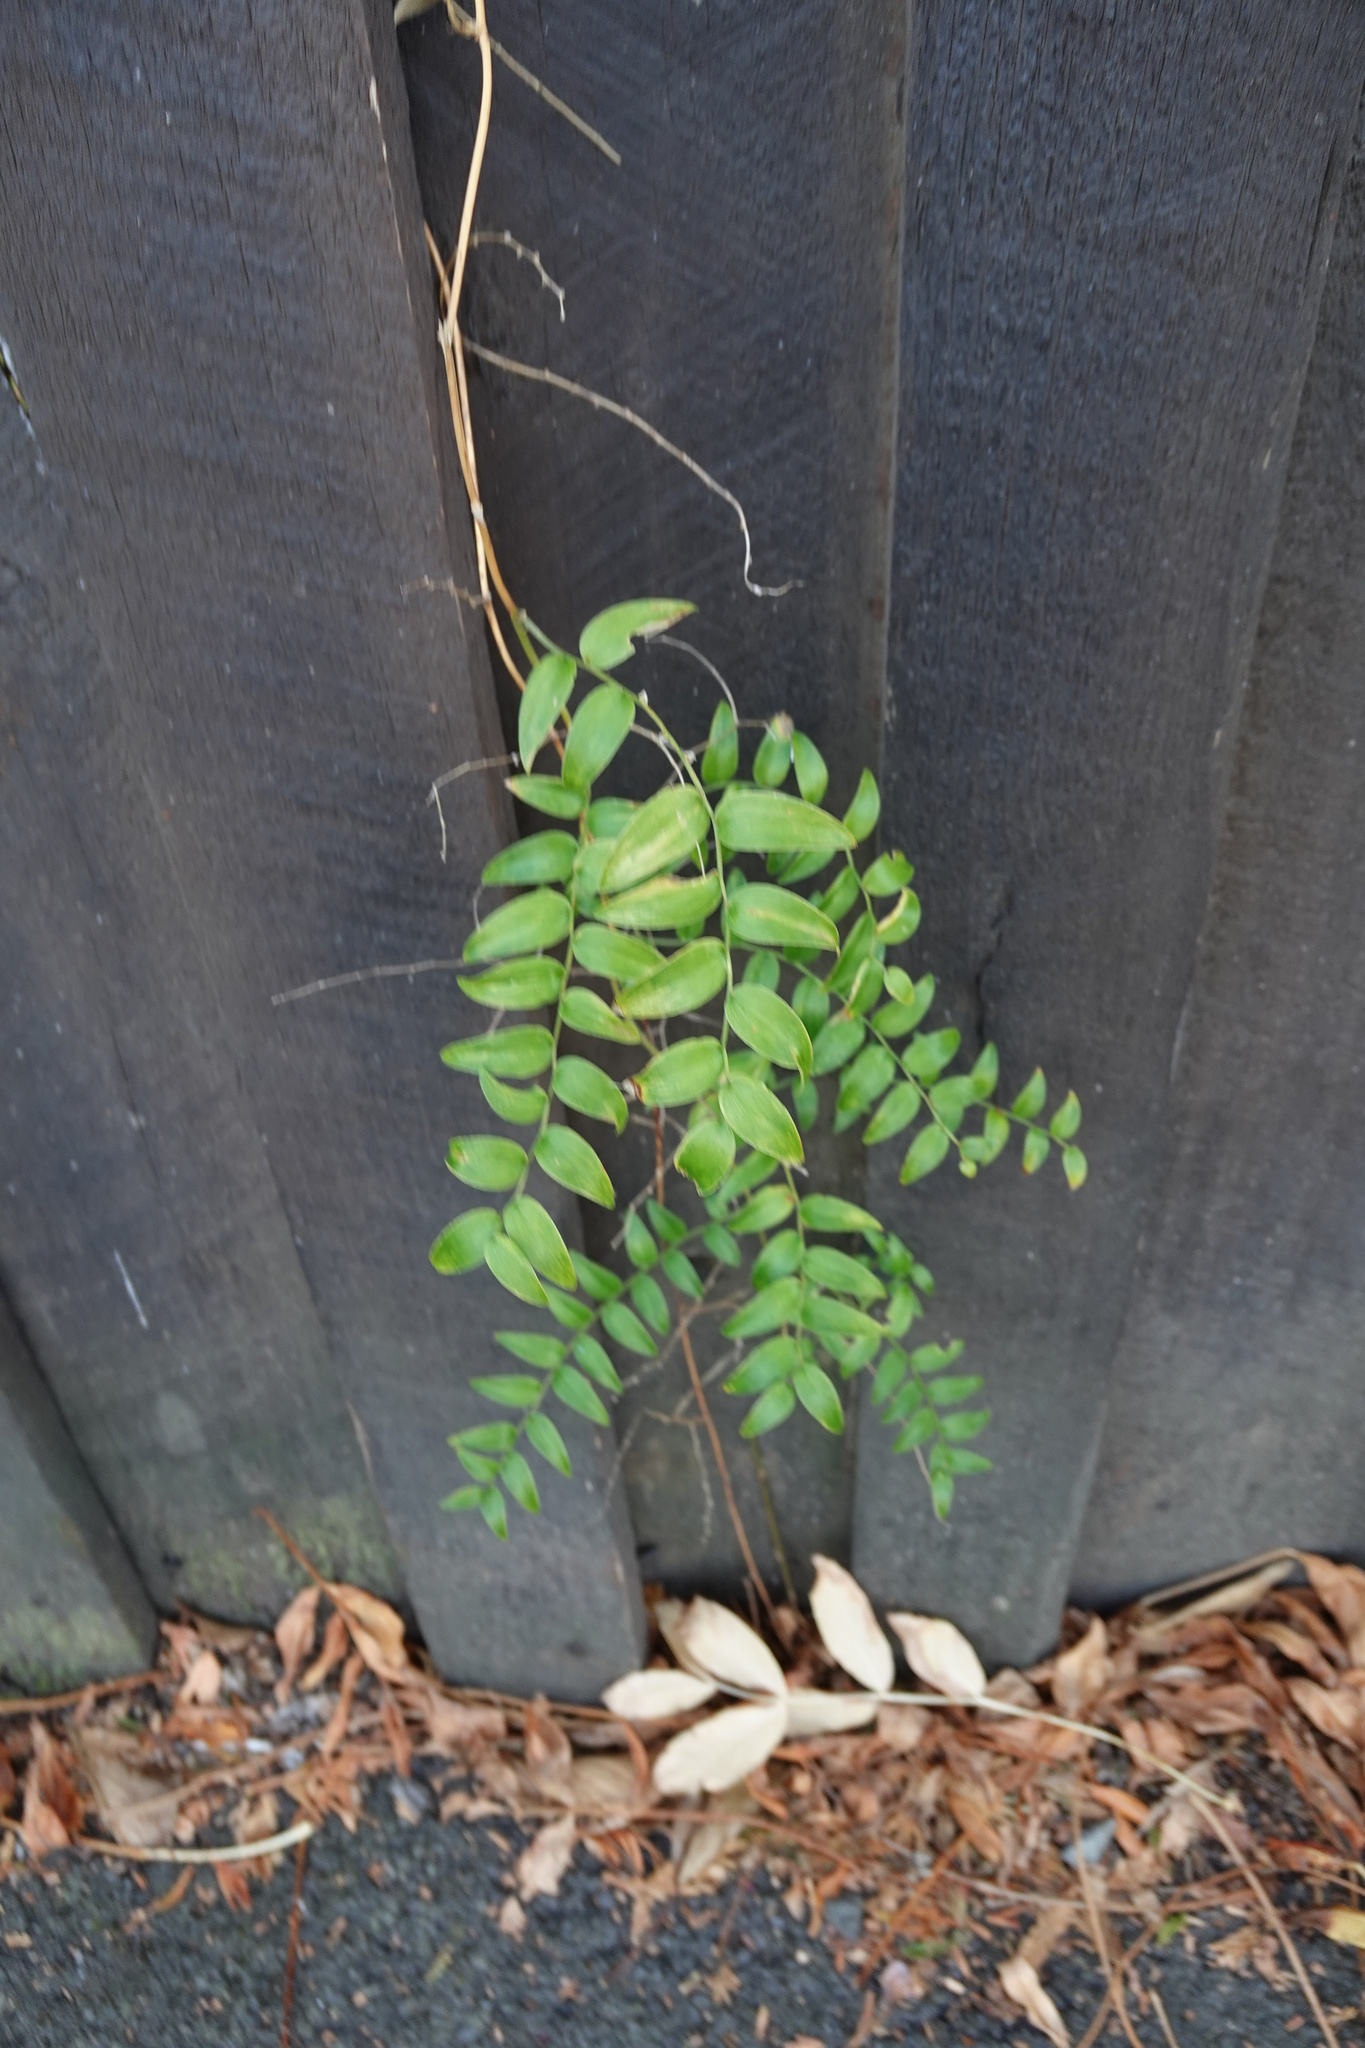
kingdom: Plantae
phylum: Tracheophyta
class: Liliopsida
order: Asparagales
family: Asparagaceae
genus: Asparagus
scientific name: Asparagus asparagoides
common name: African asparagus fern
